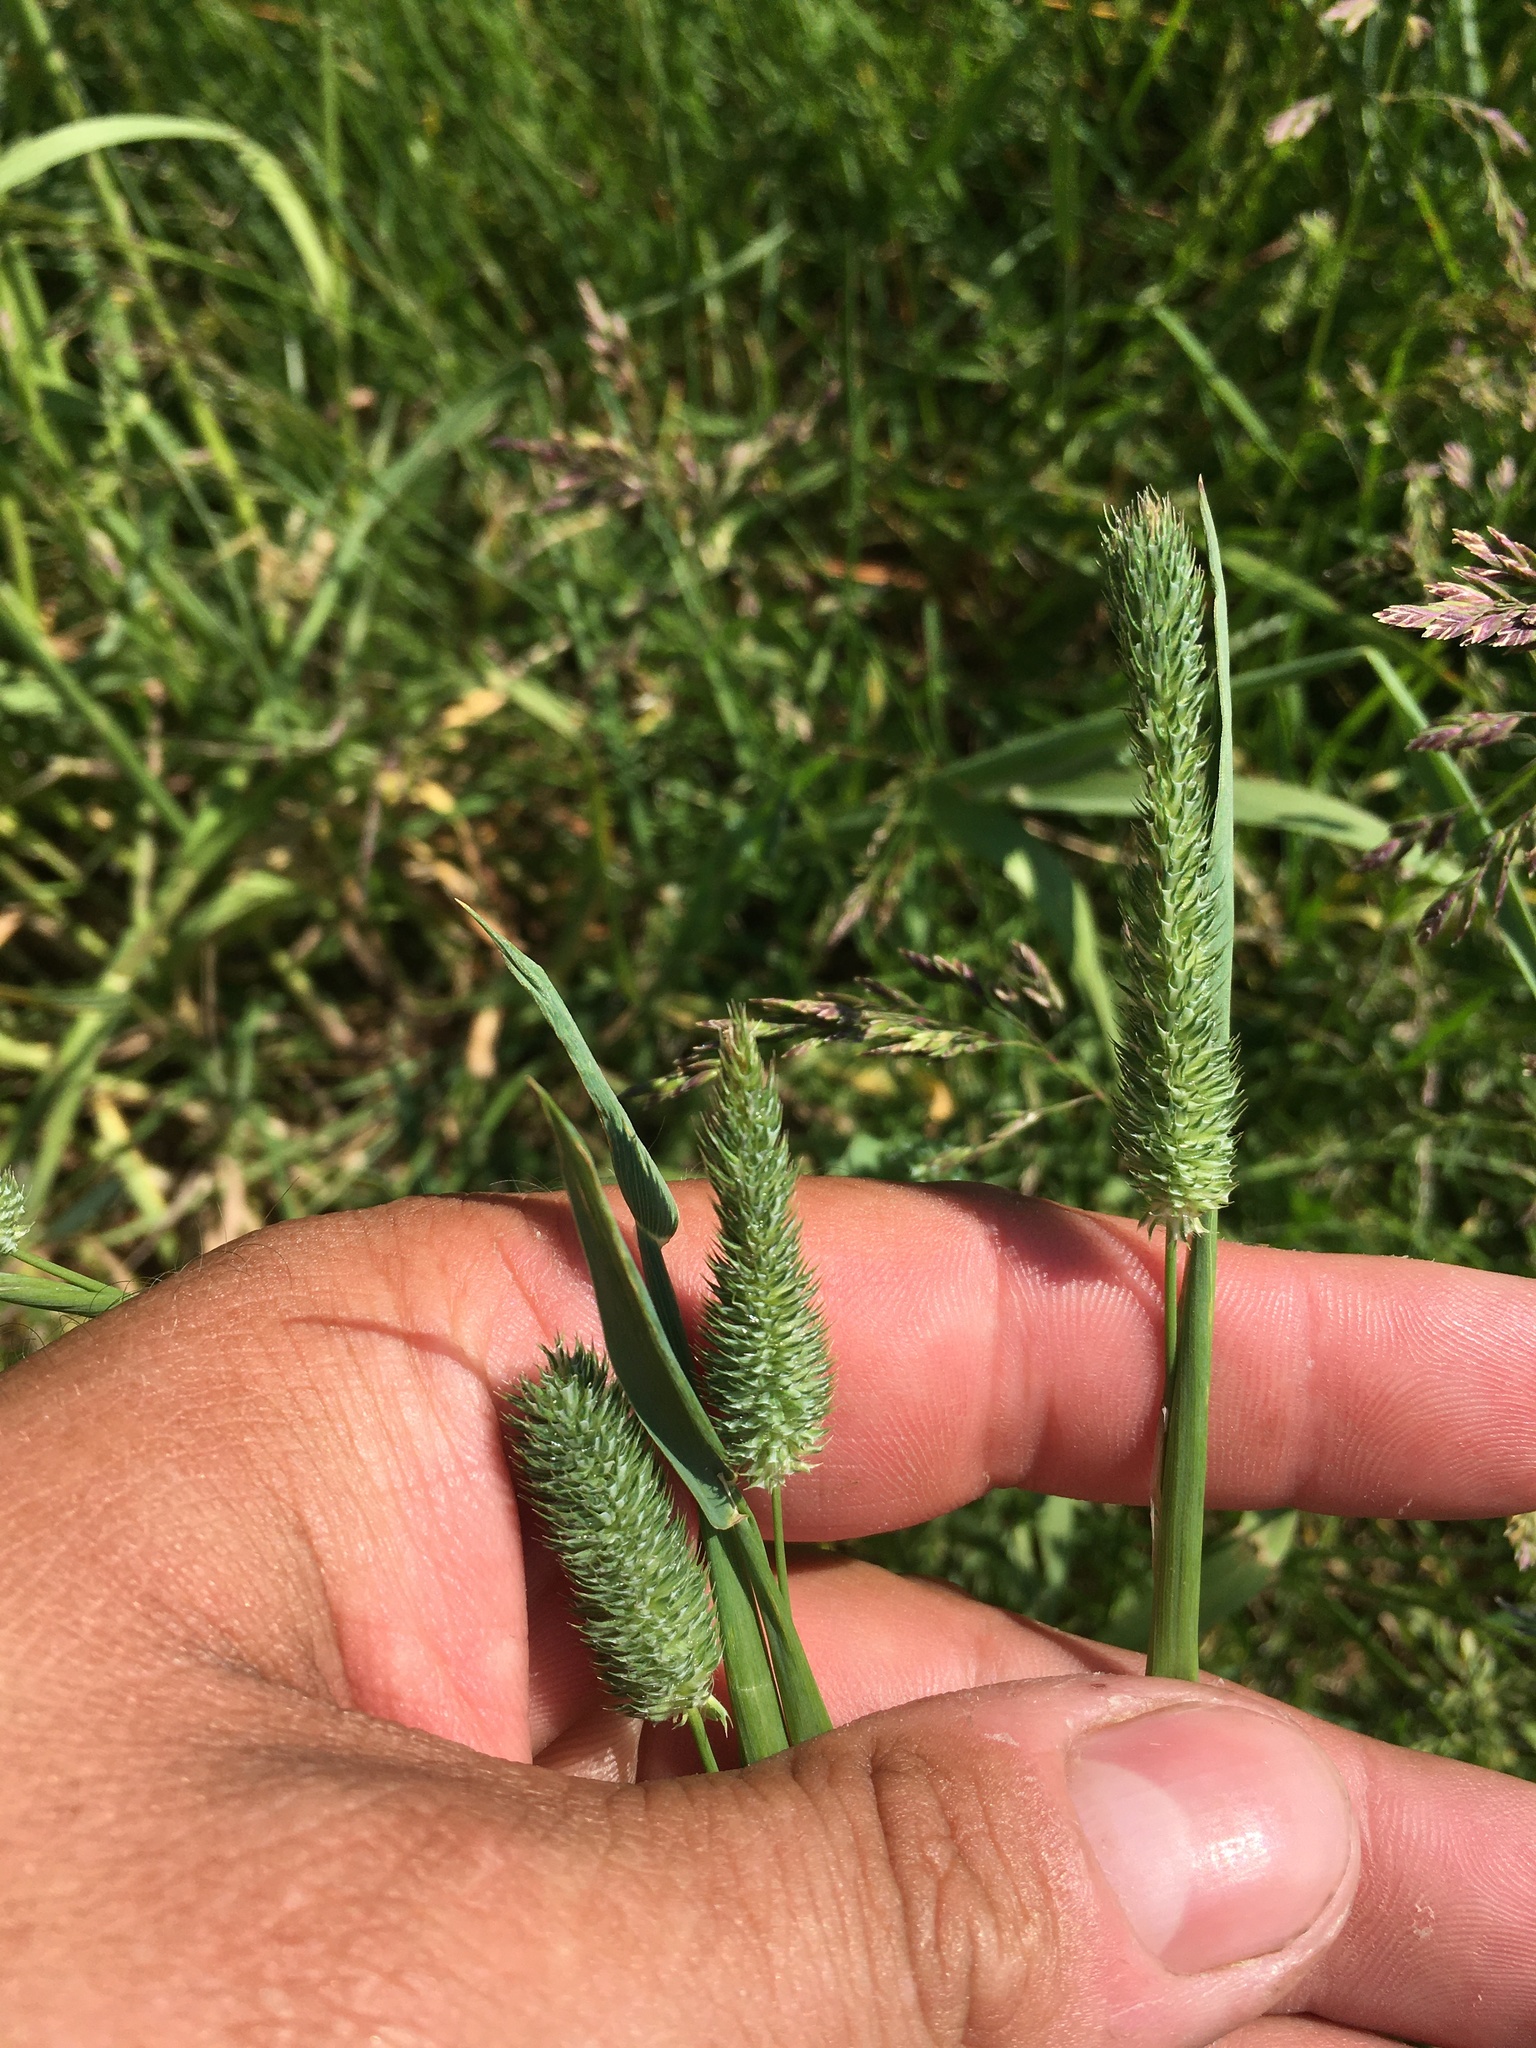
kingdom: Plantae
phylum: Tracheophyta
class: Liliopsida
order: Poales
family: Poaceae
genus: Phleum
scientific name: Phleum pratense
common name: Timothy grass
